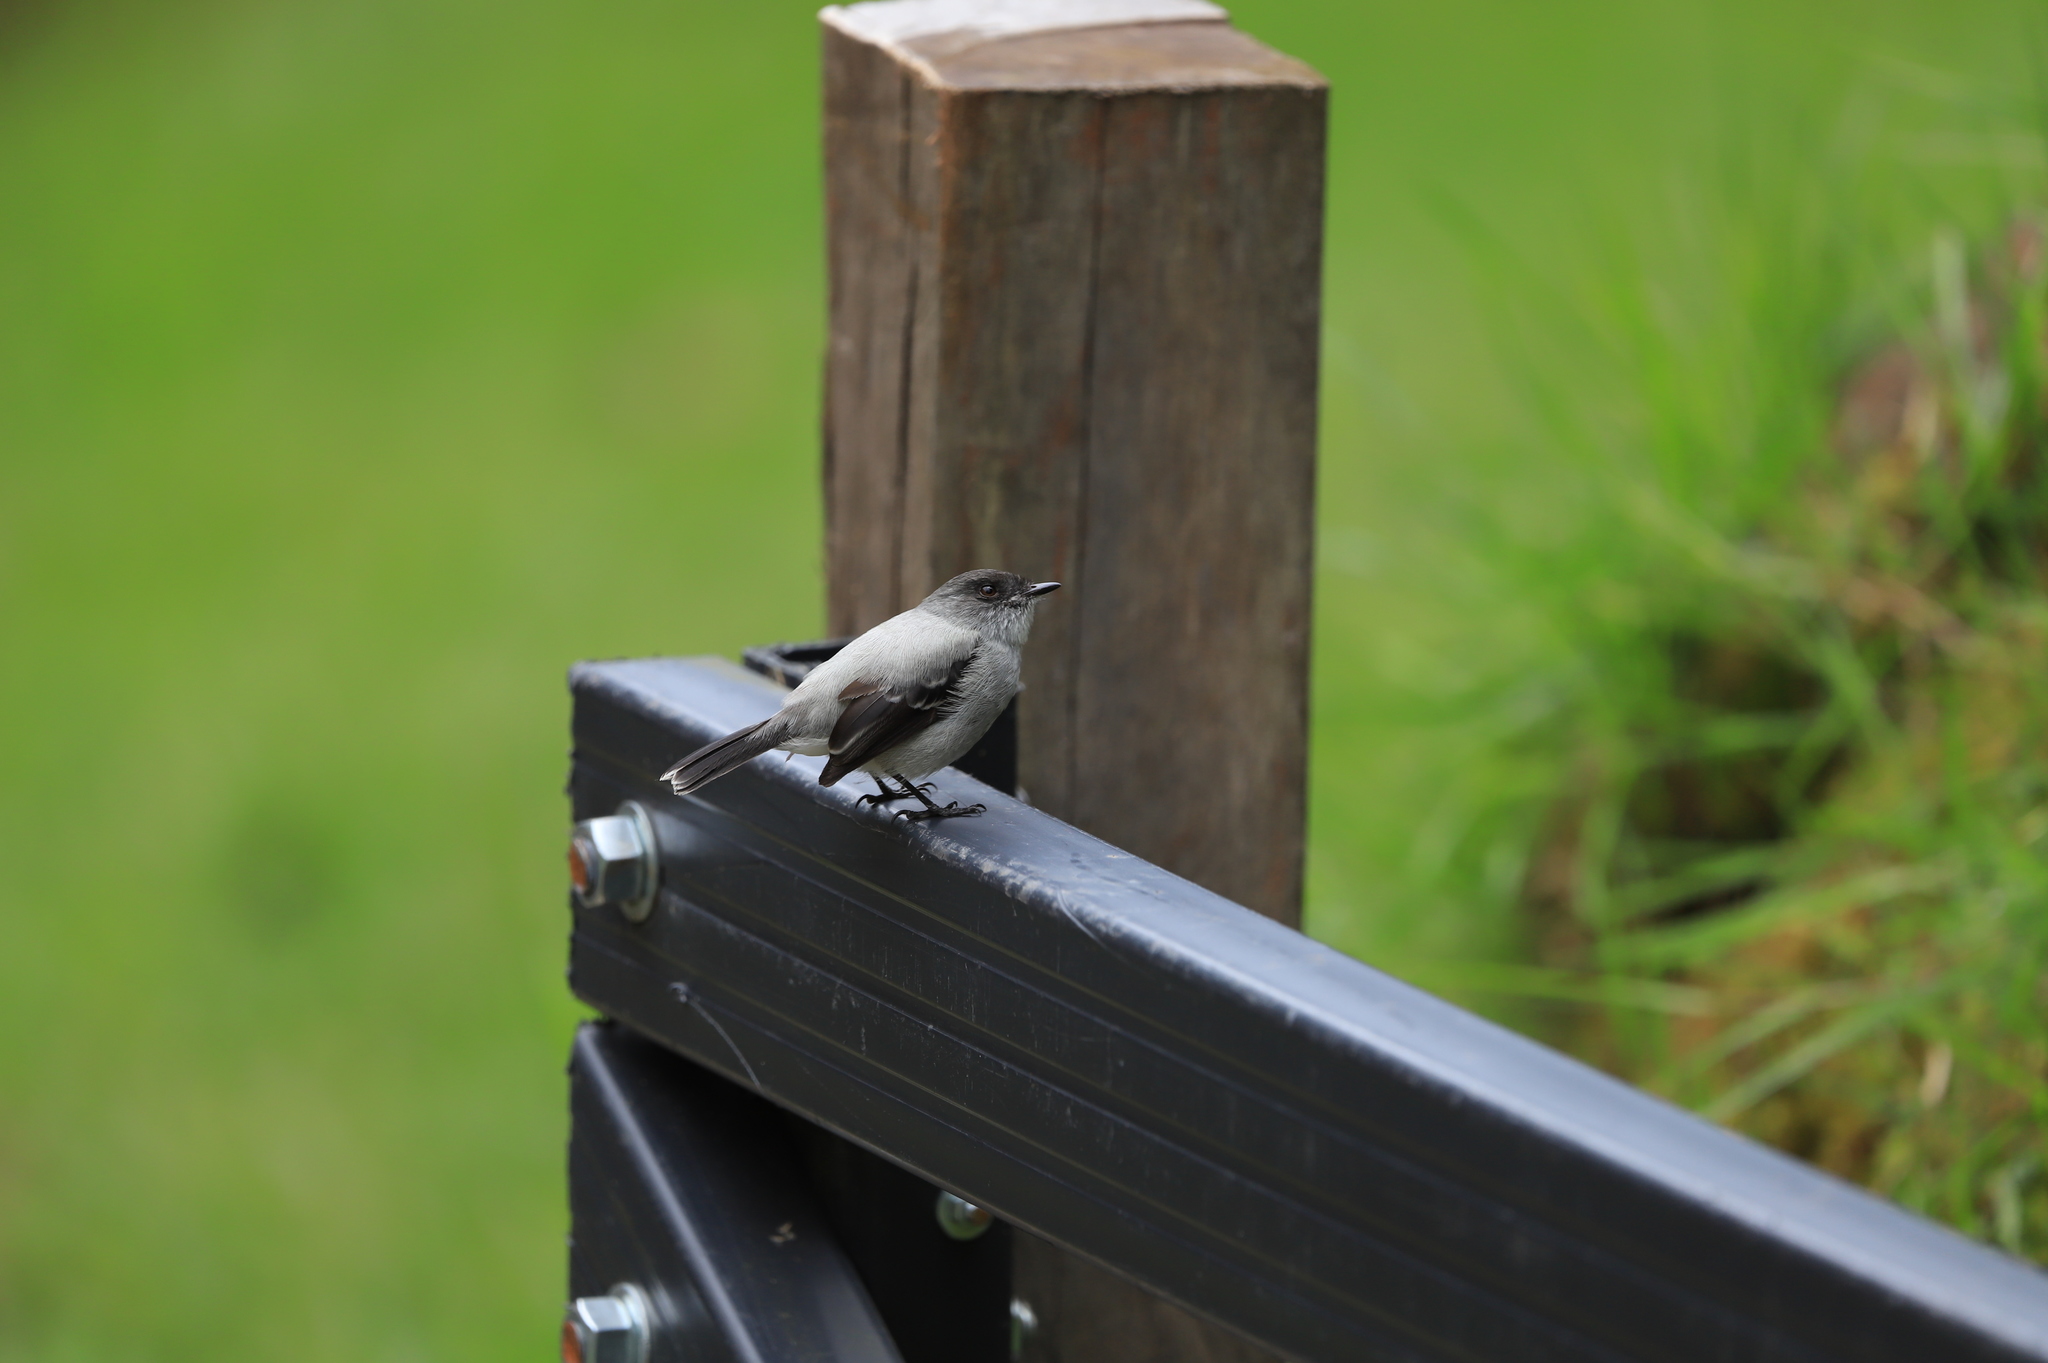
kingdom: Animalia
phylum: Chordata
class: Aves
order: Passeriformes
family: Tyrannidae
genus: Serpophaga
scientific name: Serpophaga cinerea
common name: Torrent tyrannulet
